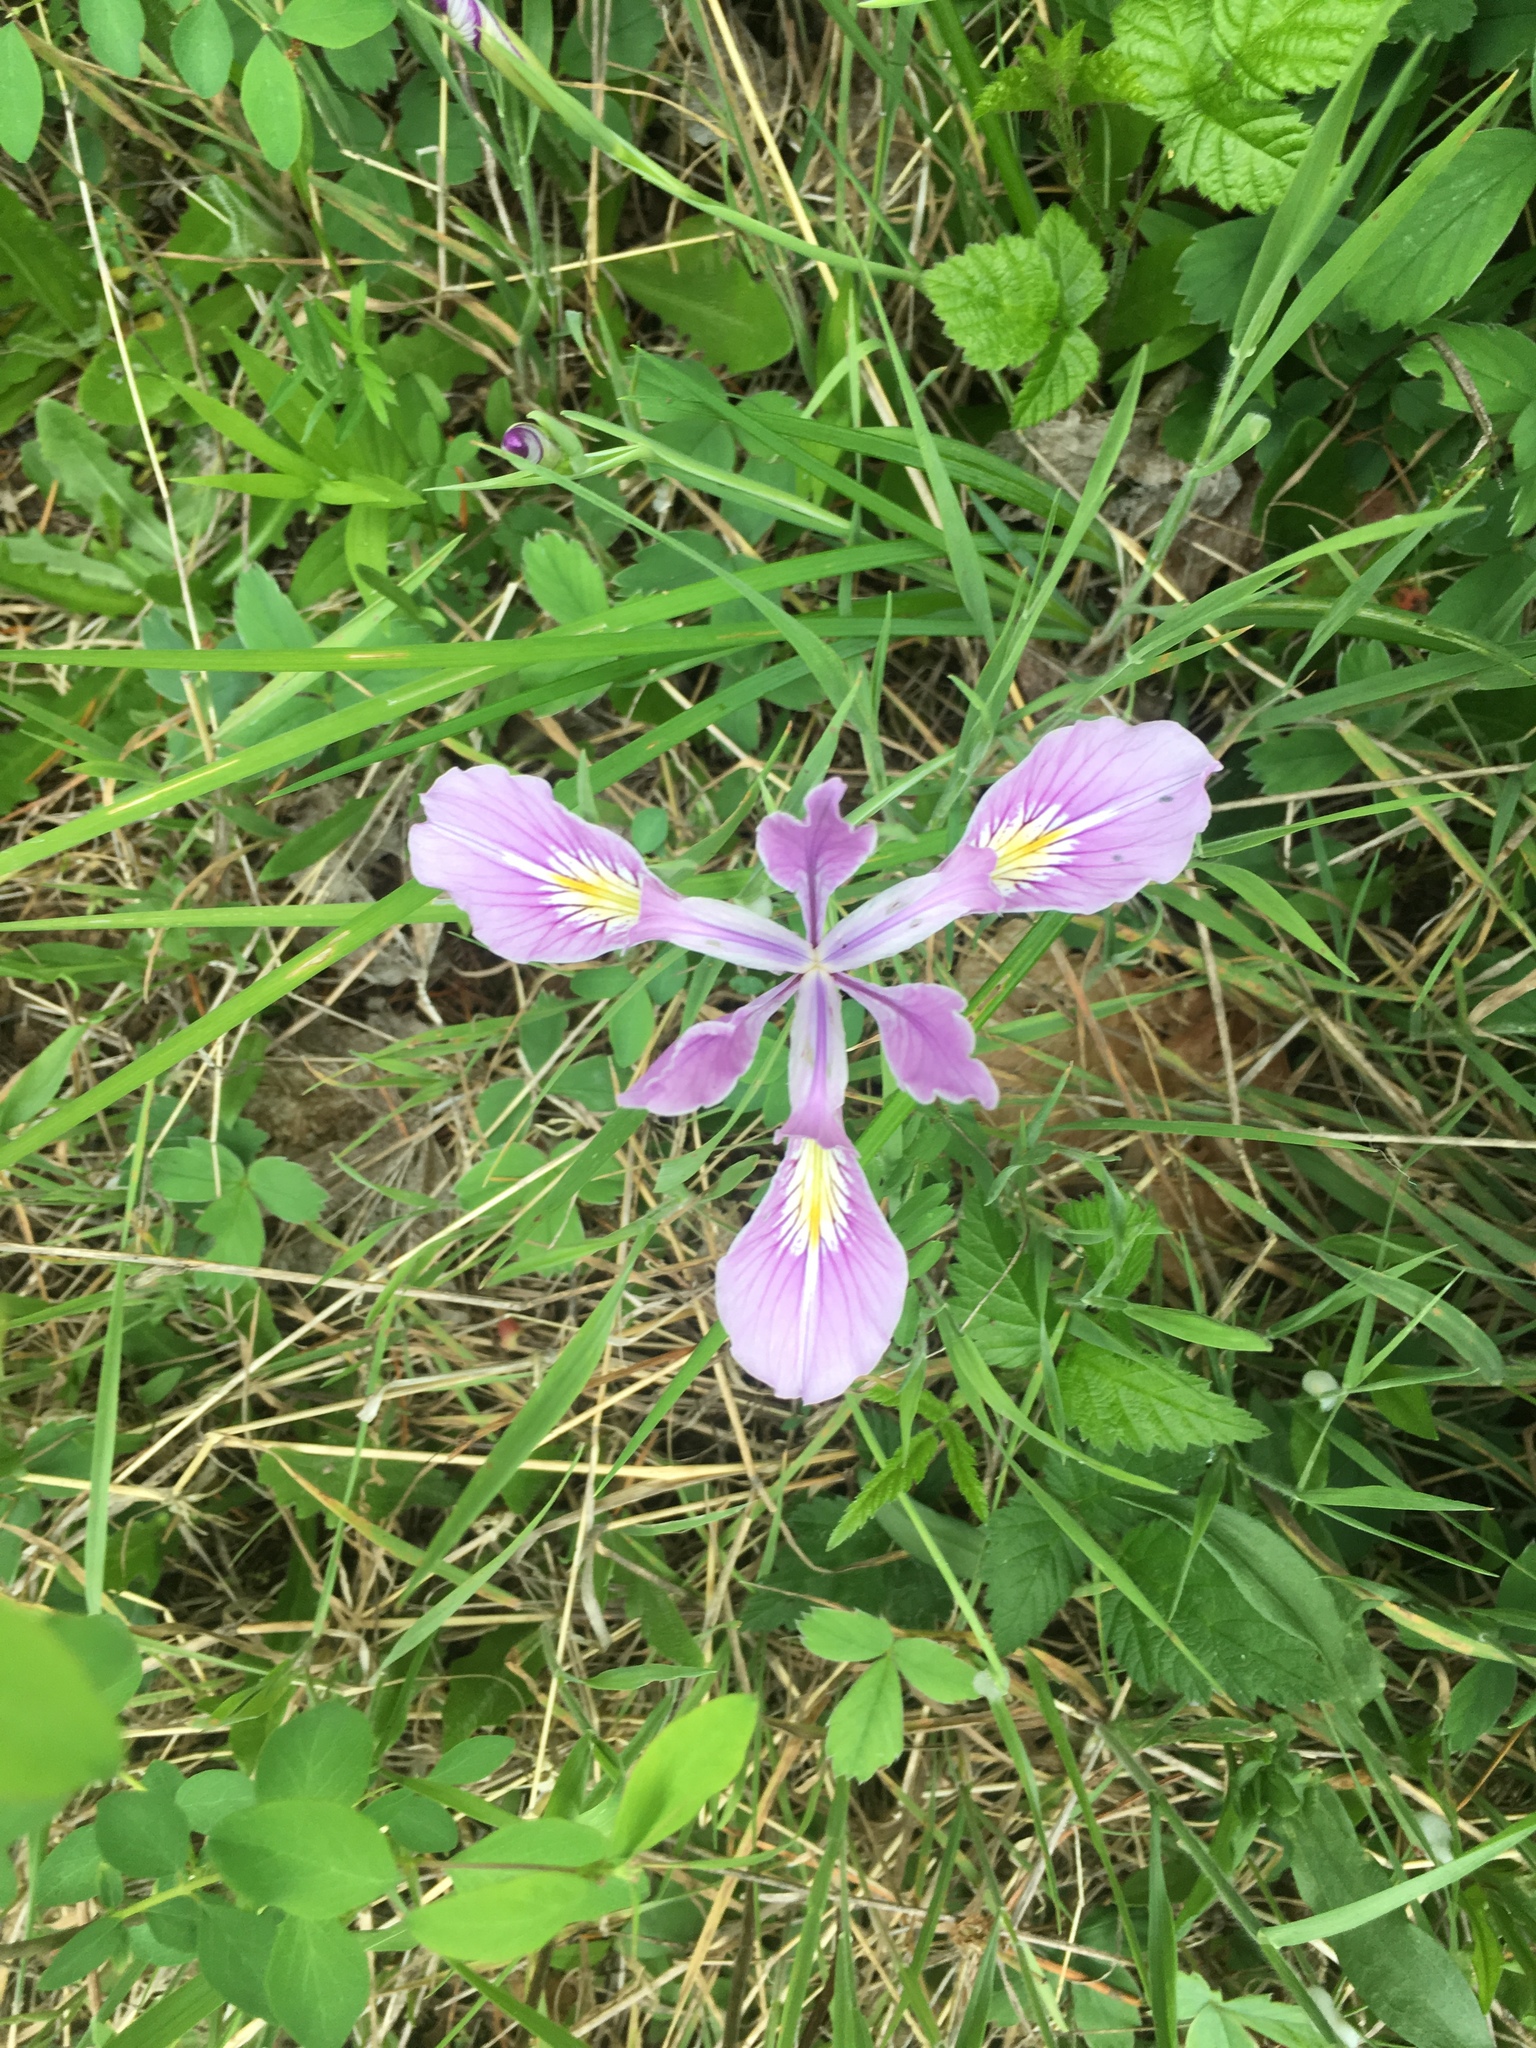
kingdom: Plantae
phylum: Tracheophyta
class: Liliopsida
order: Asparagales
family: Iridaceae
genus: Iris
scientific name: Iris tenax
